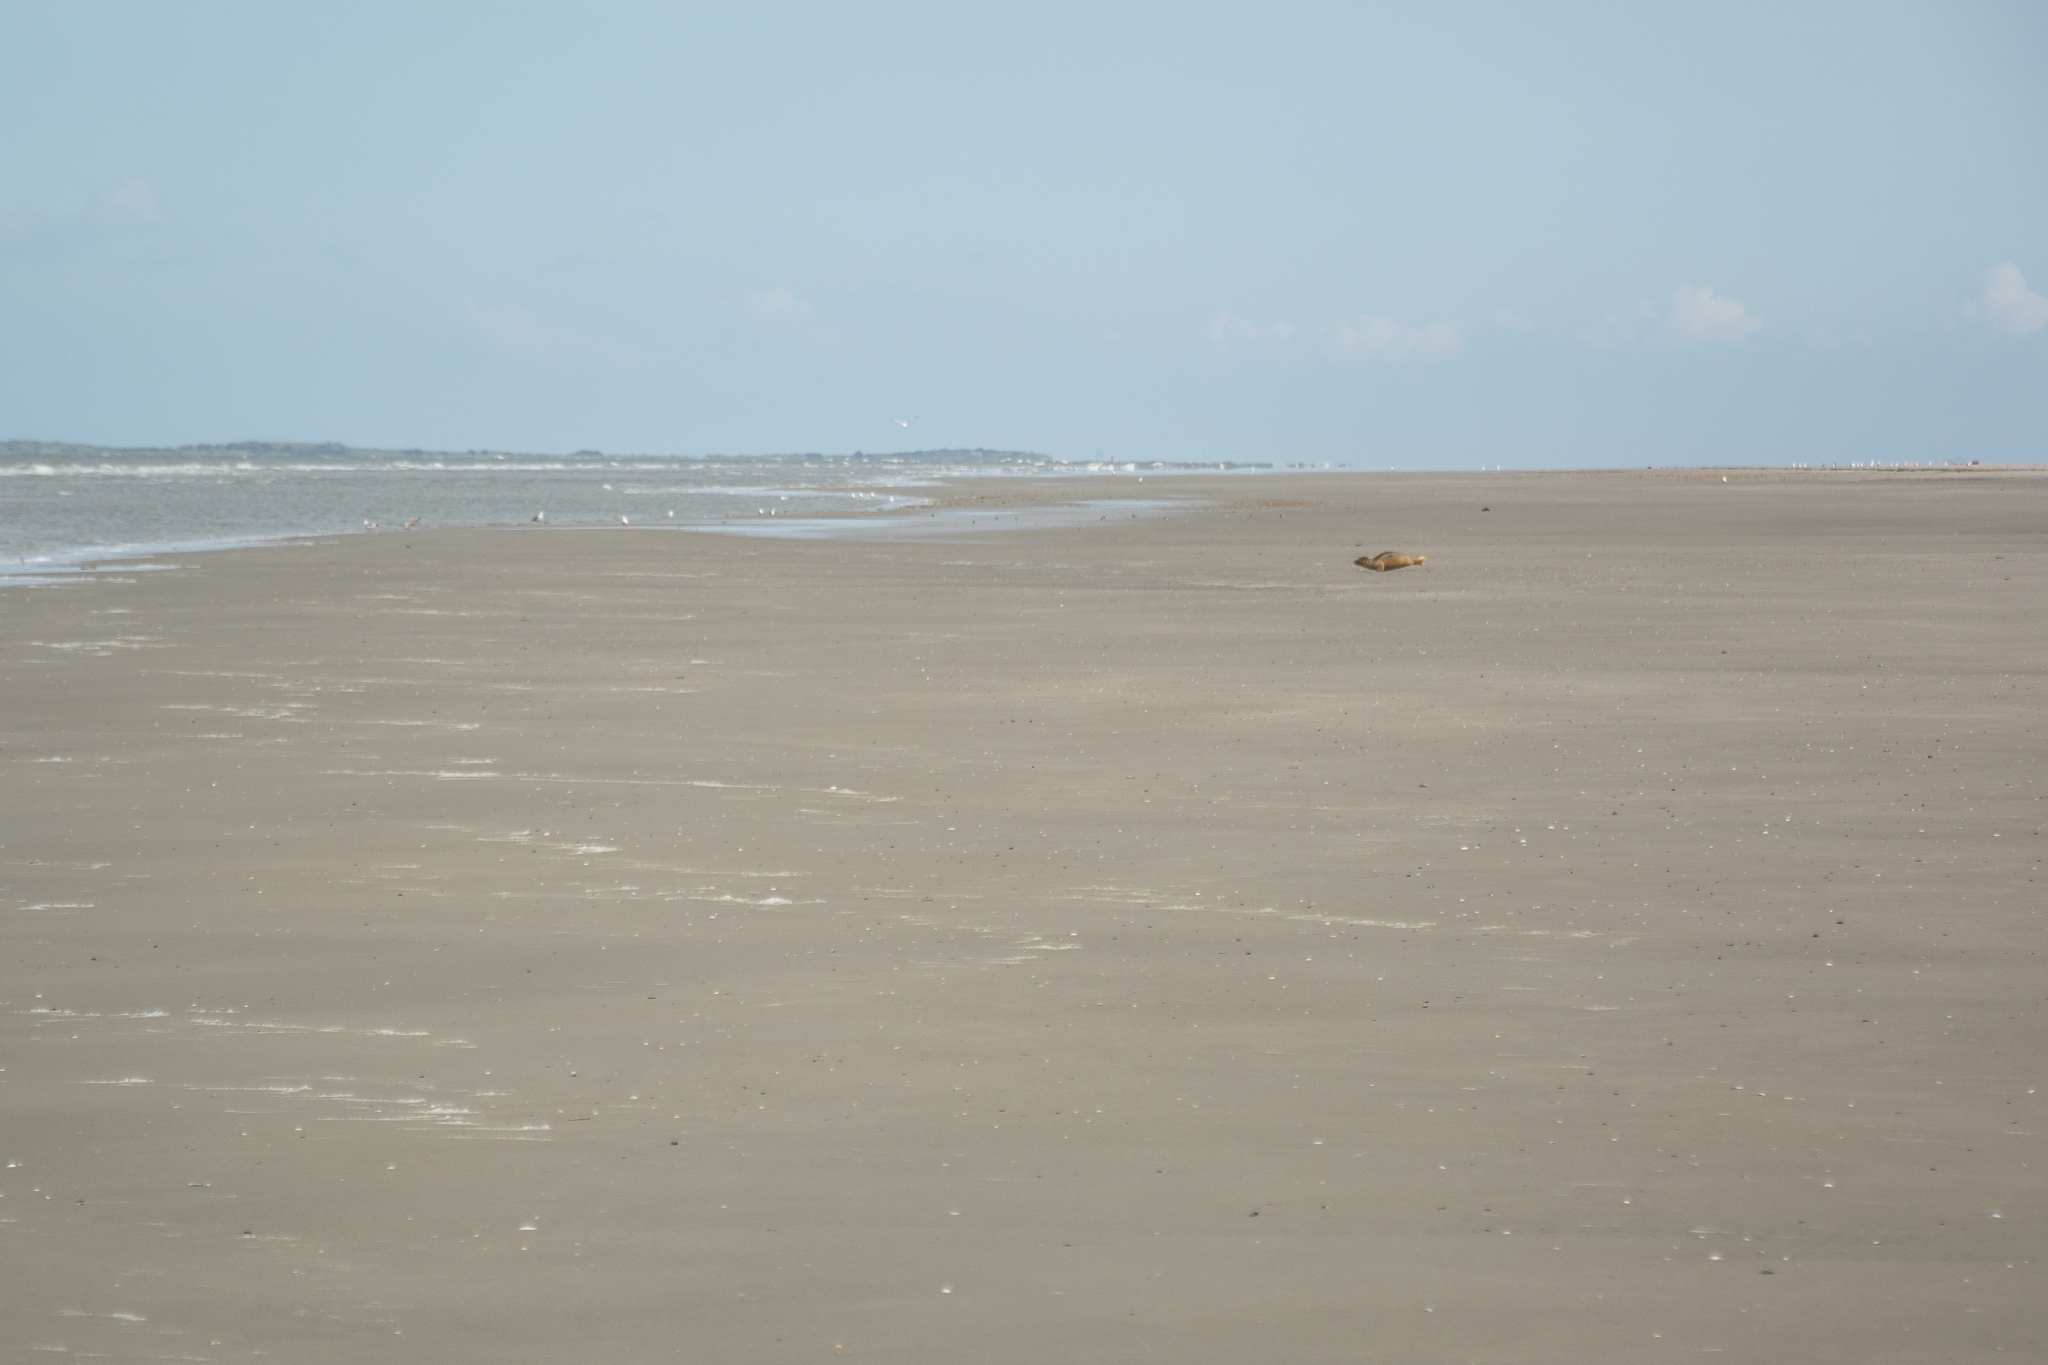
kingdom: Animalia
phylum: Chordata
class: Mammalia
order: Carnivora
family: Phocidae
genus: Phoca
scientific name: Phoca vitulina
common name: Harbor seal
